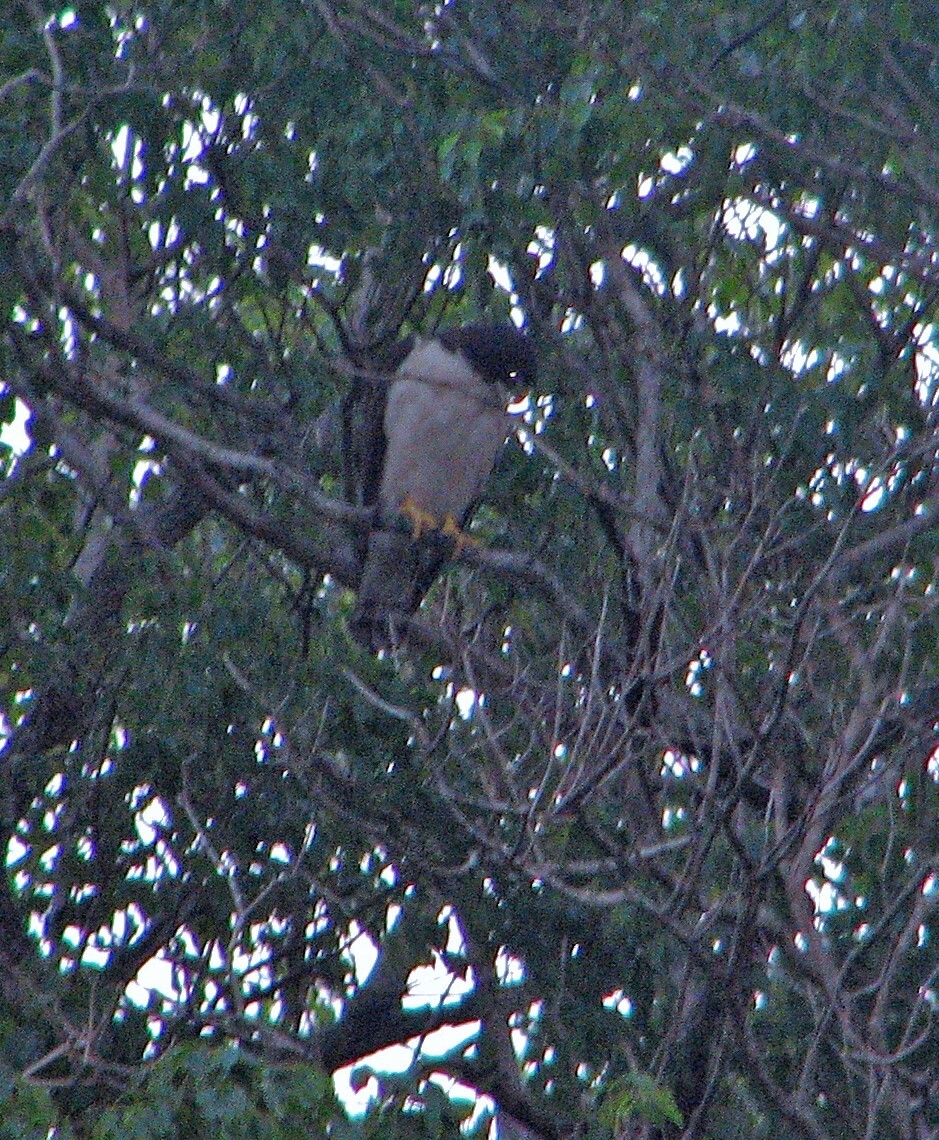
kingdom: Animalia
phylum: Chordata
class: Aves
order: Accipitriformes
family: Accipitridae
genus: Buteo
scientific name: Buteo brachyurus
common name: Short-tailed hawk
